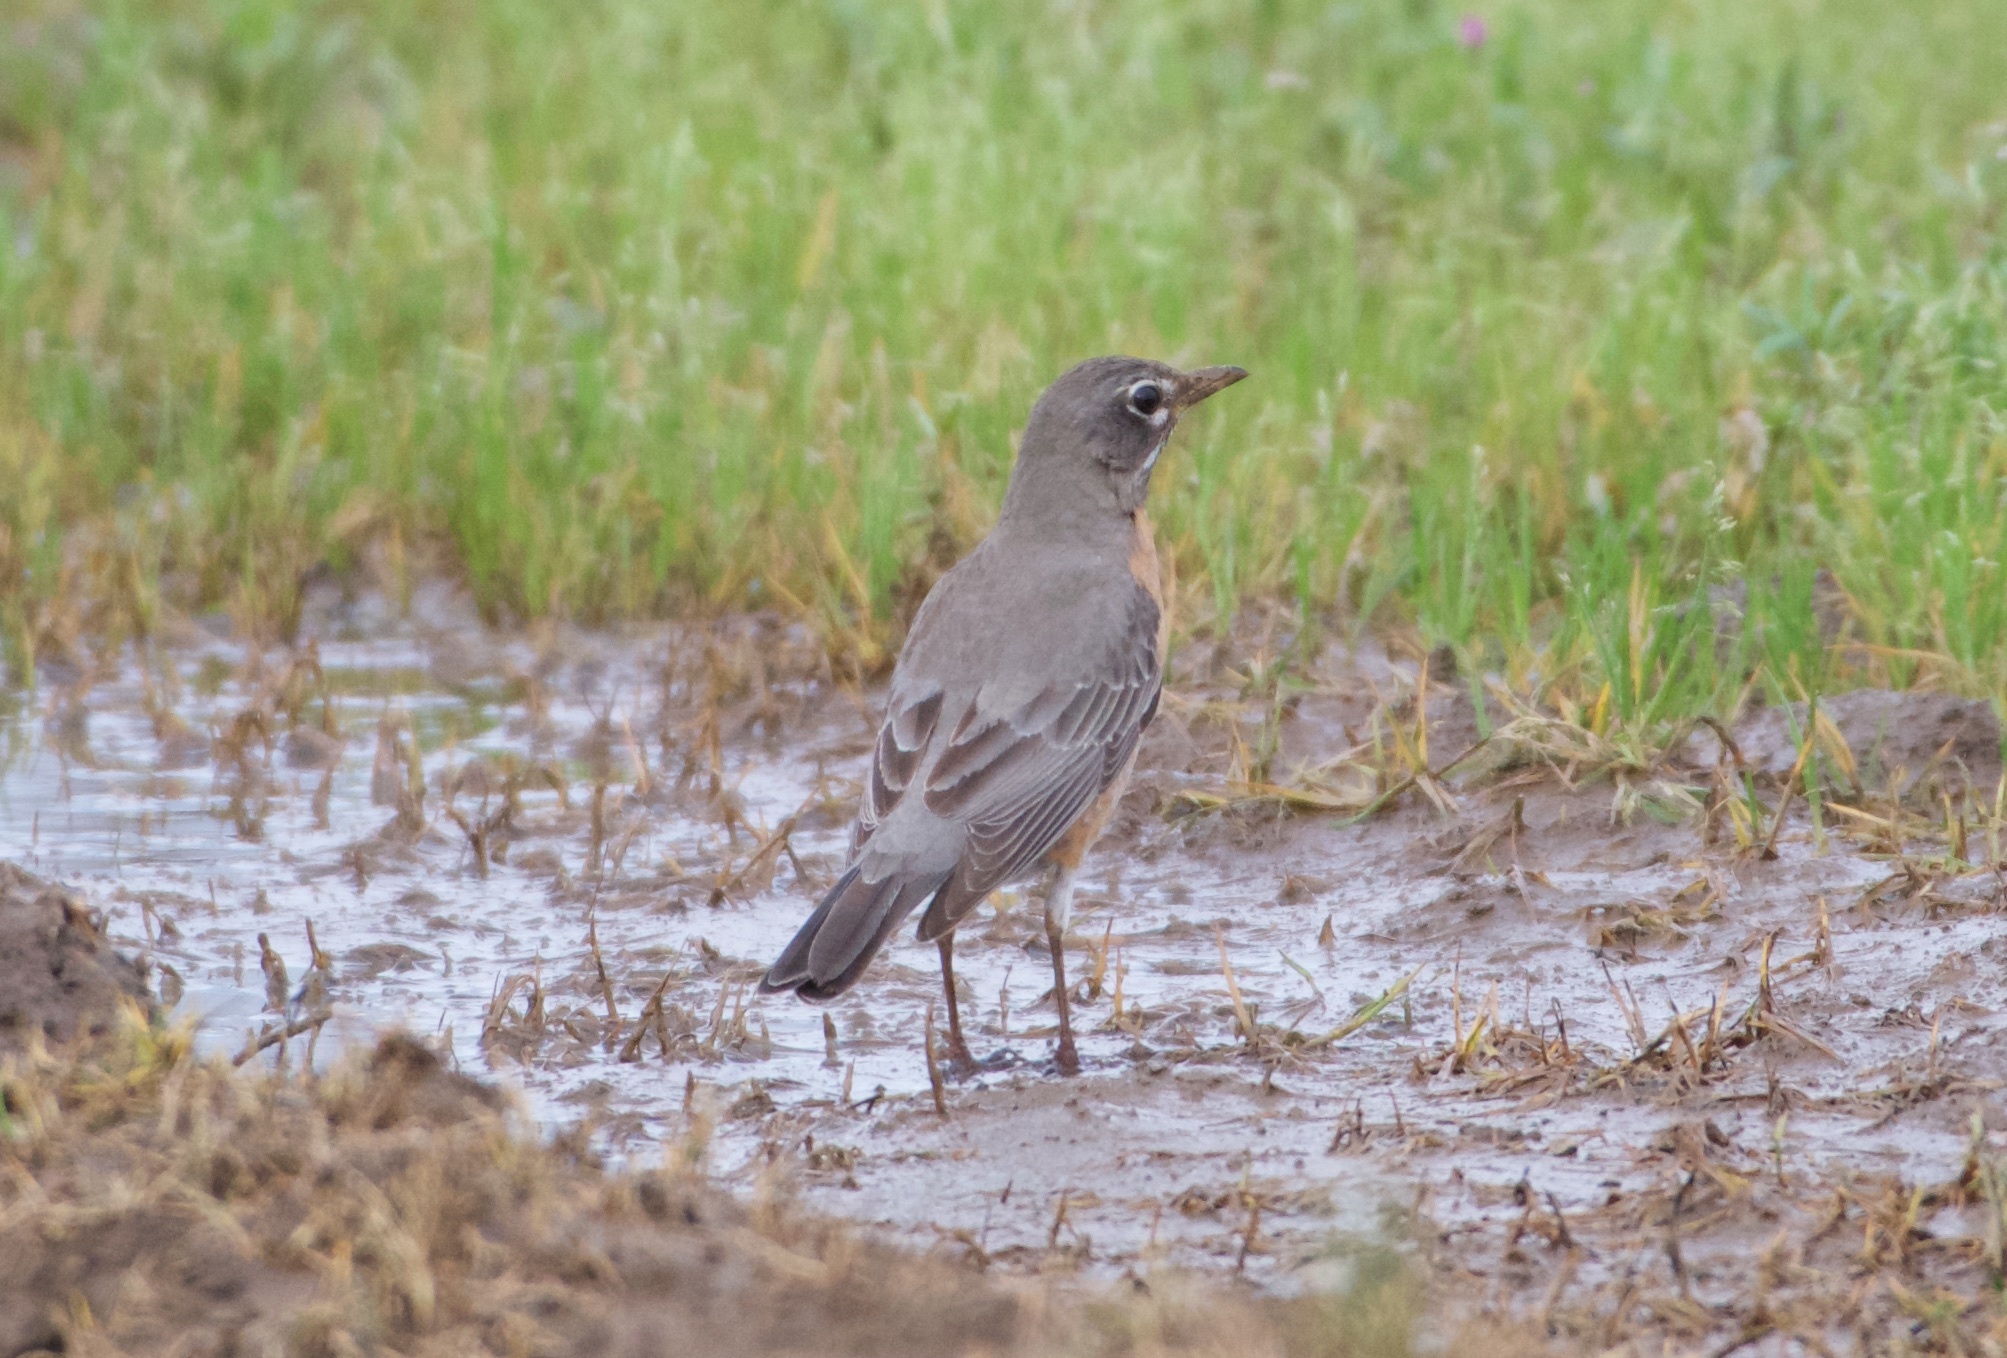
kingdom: Animalia
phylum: Chordata
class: Aves
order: Passeriformes
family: Turdidae
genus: Turdus
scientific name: Turdus migratorius
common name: American robin
